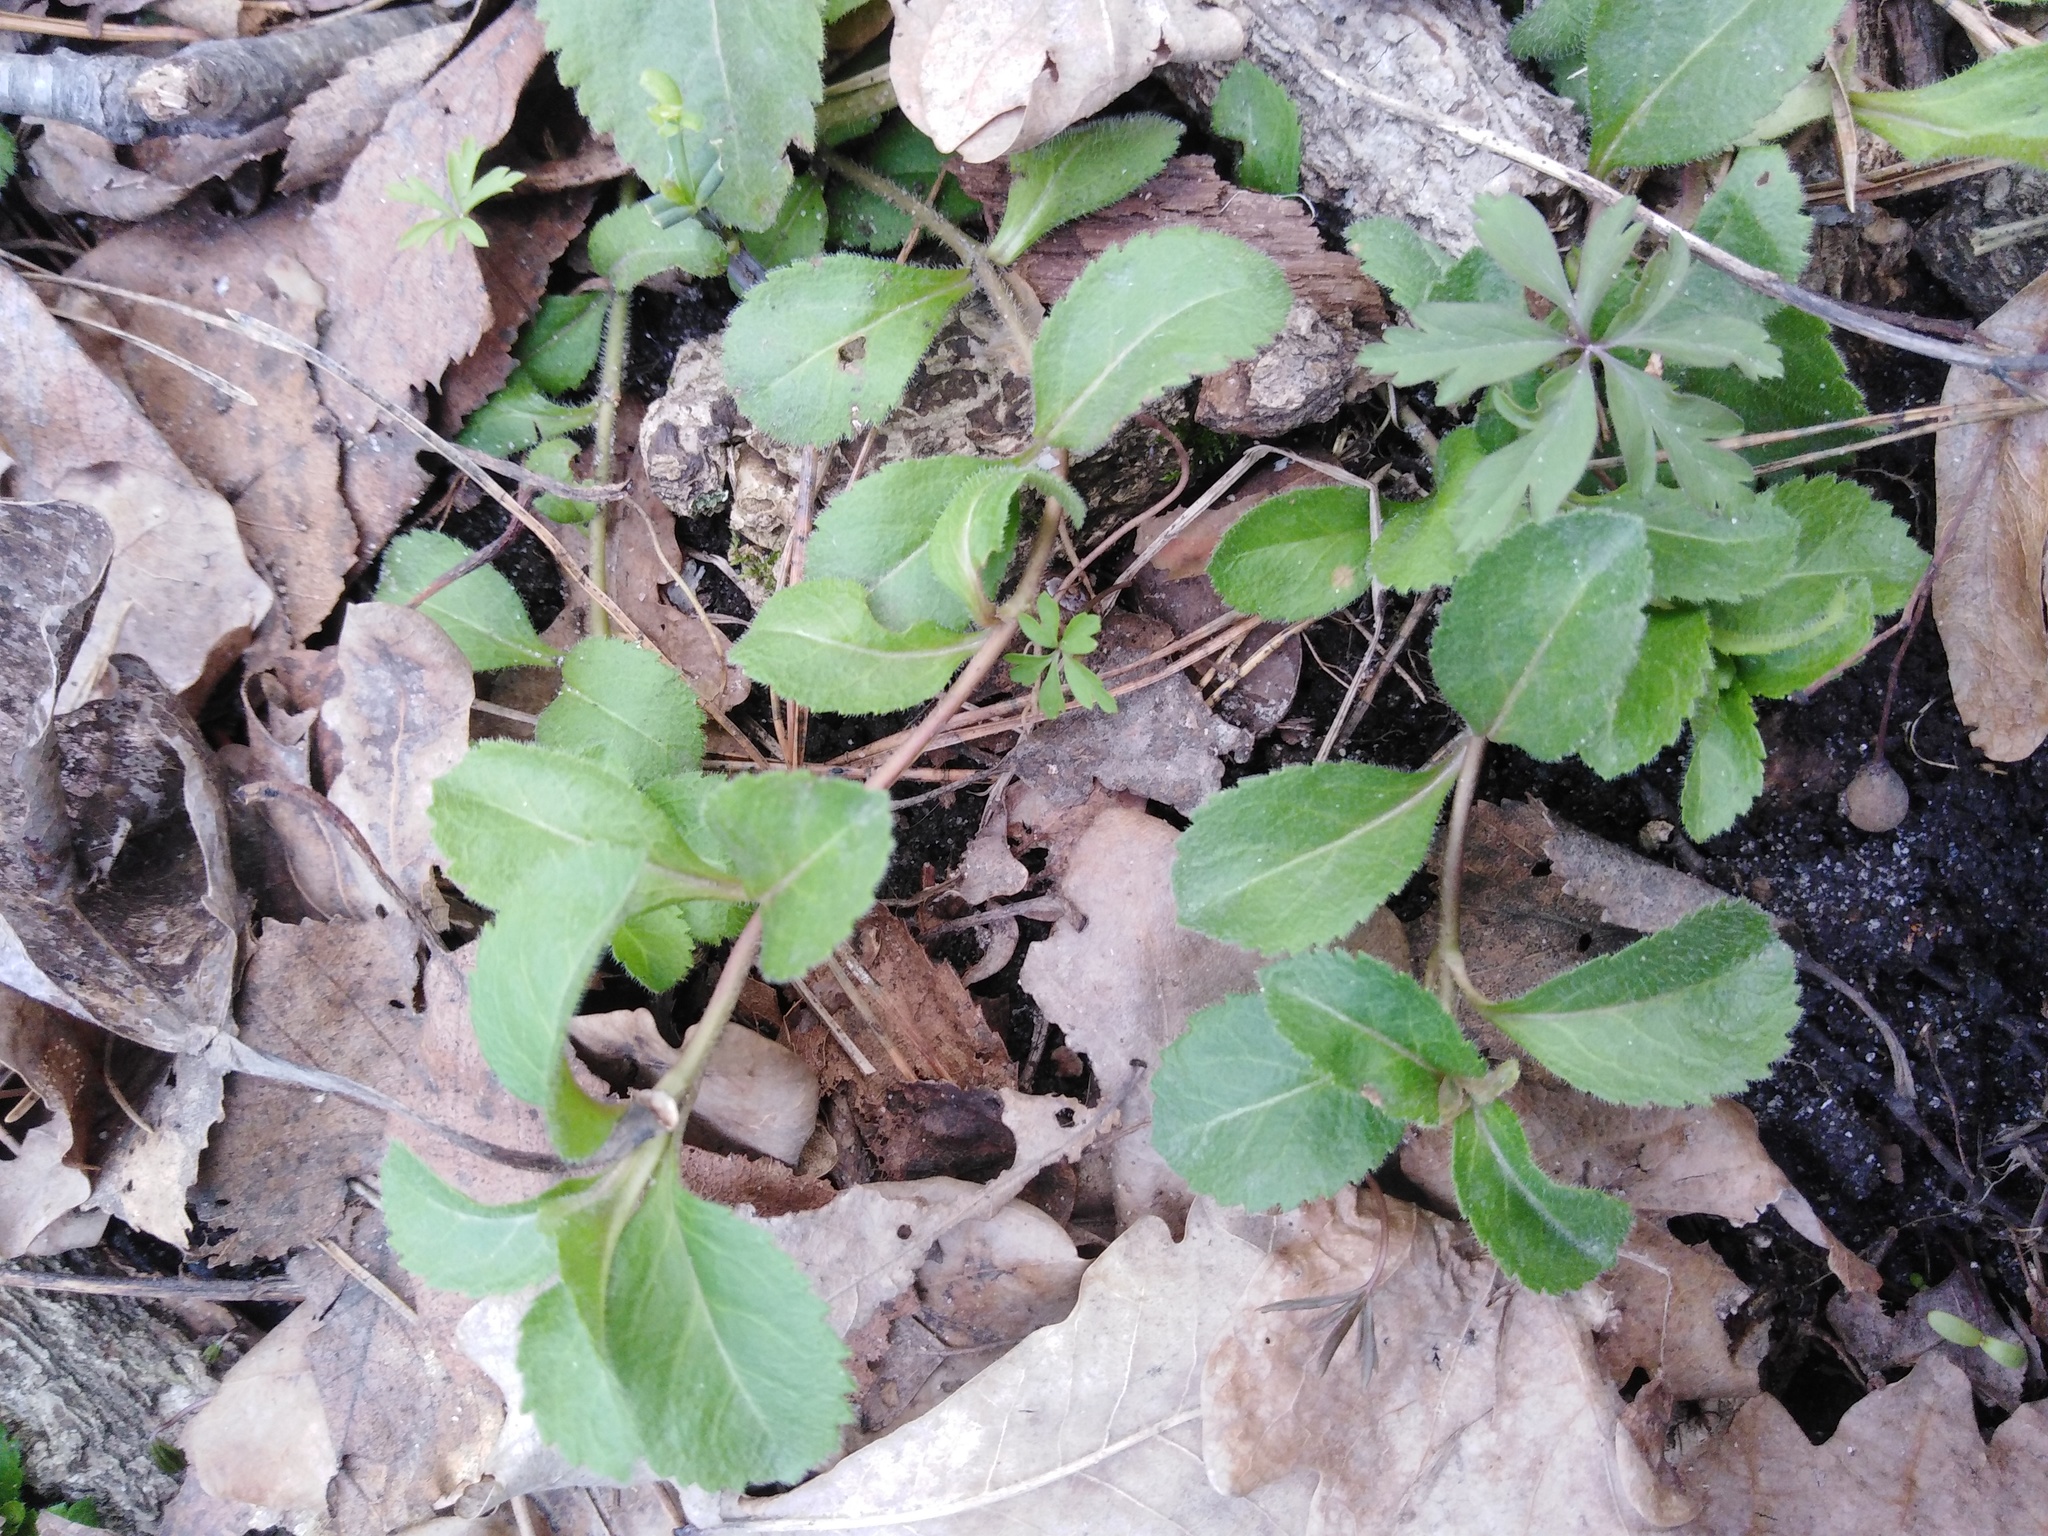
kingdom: Plantae
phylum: Tracheophyta
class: Magnoliopsida
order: Lamiales
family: Plantaginaceae
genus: Veronica
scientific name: Veronica officinalis
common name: Common speedwell
